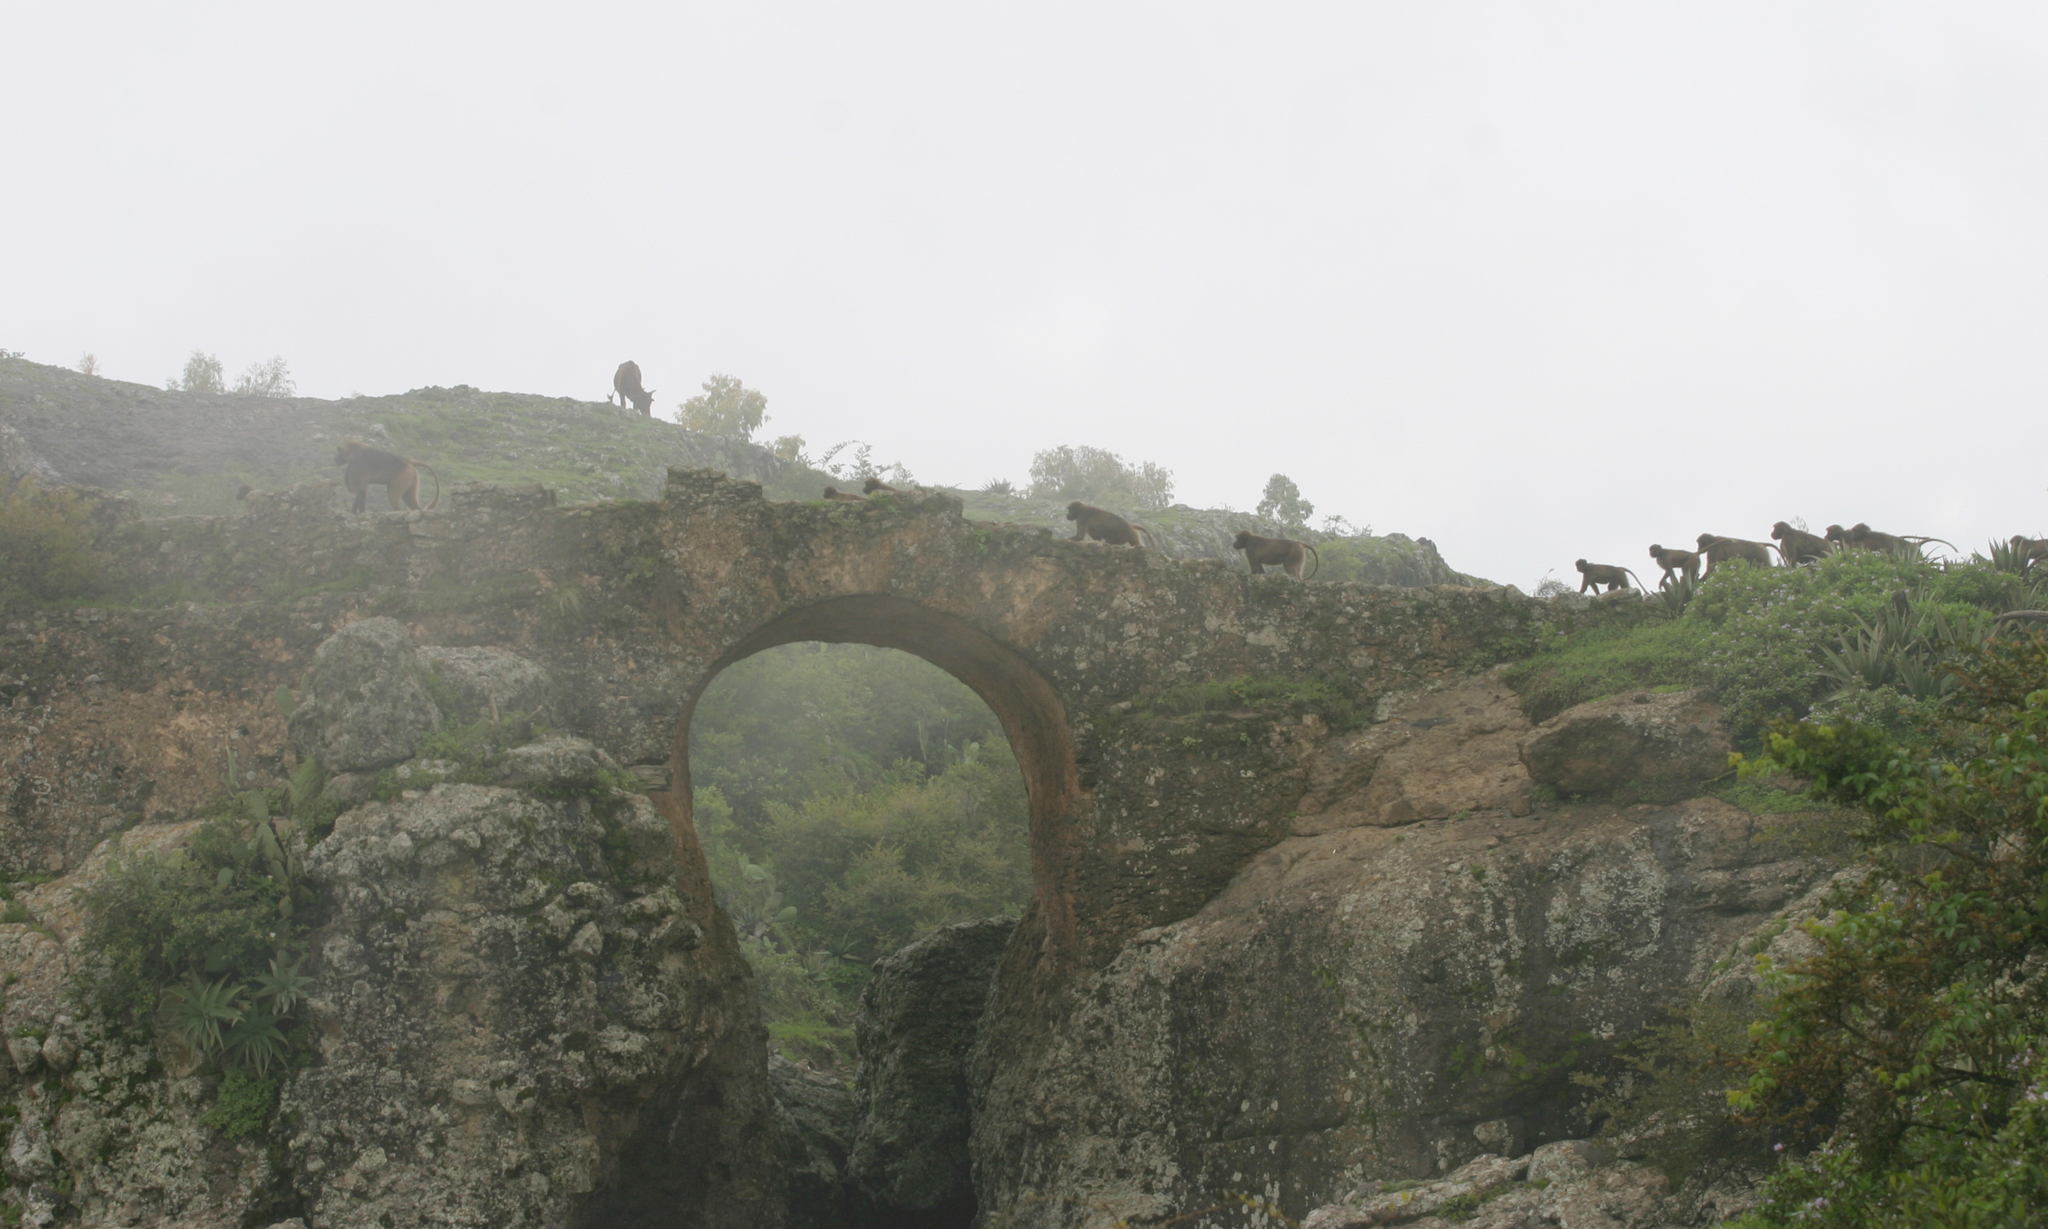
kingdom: Animalia
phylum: Chordata
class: Mammalia
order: Primates
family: Cercopithecidae
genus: Theropithecus
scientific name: Theropithecus gelada
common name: Gelada
